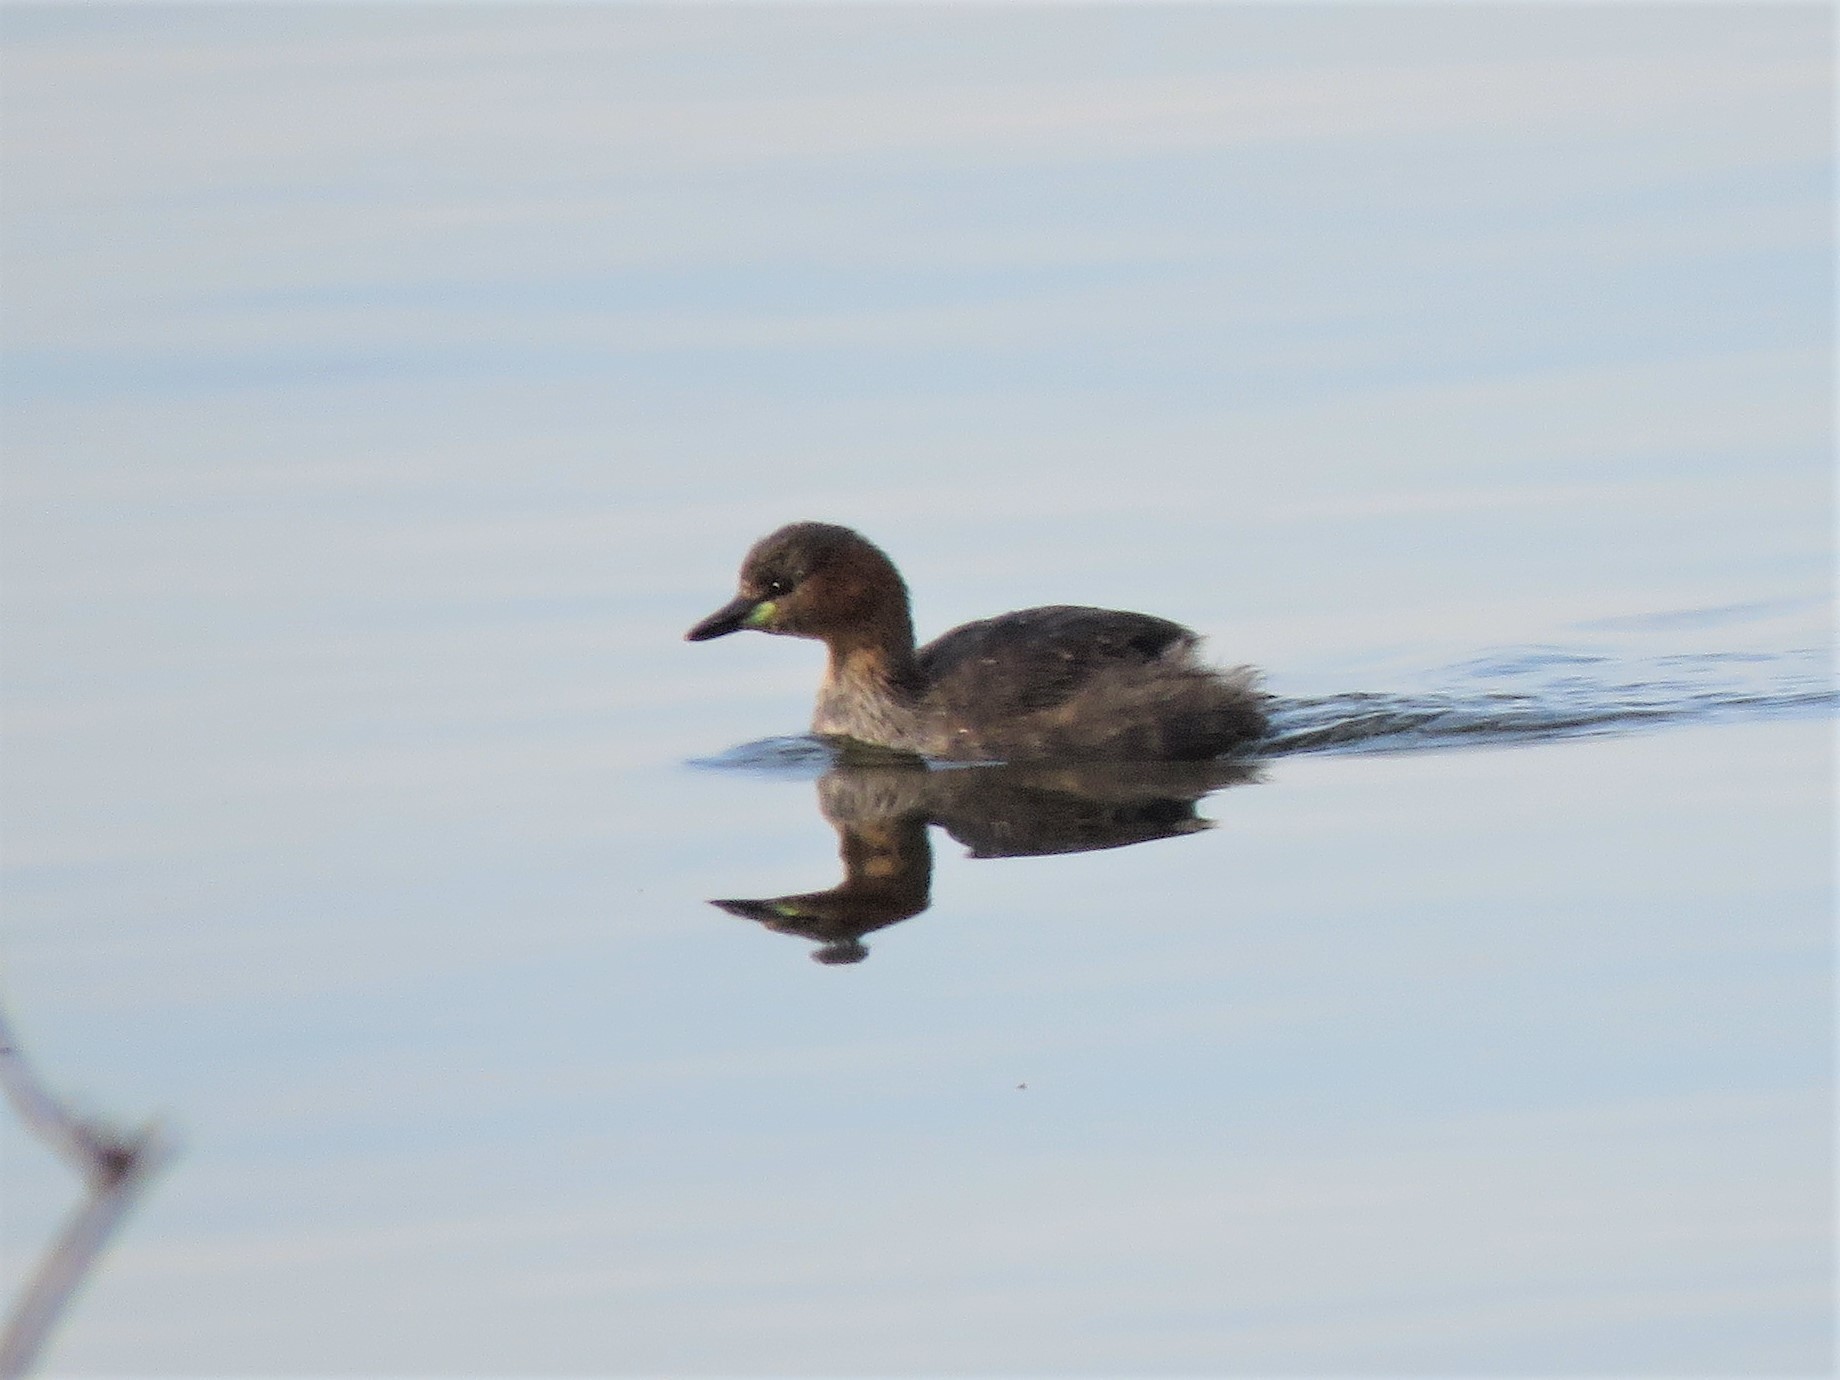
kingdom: Animalia
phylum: Chordata
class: Aves
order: Podicipediformes
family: Podicipedidae
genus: Tachybaptus
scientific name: Tachybaptus ruficollis
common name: Little grebe
